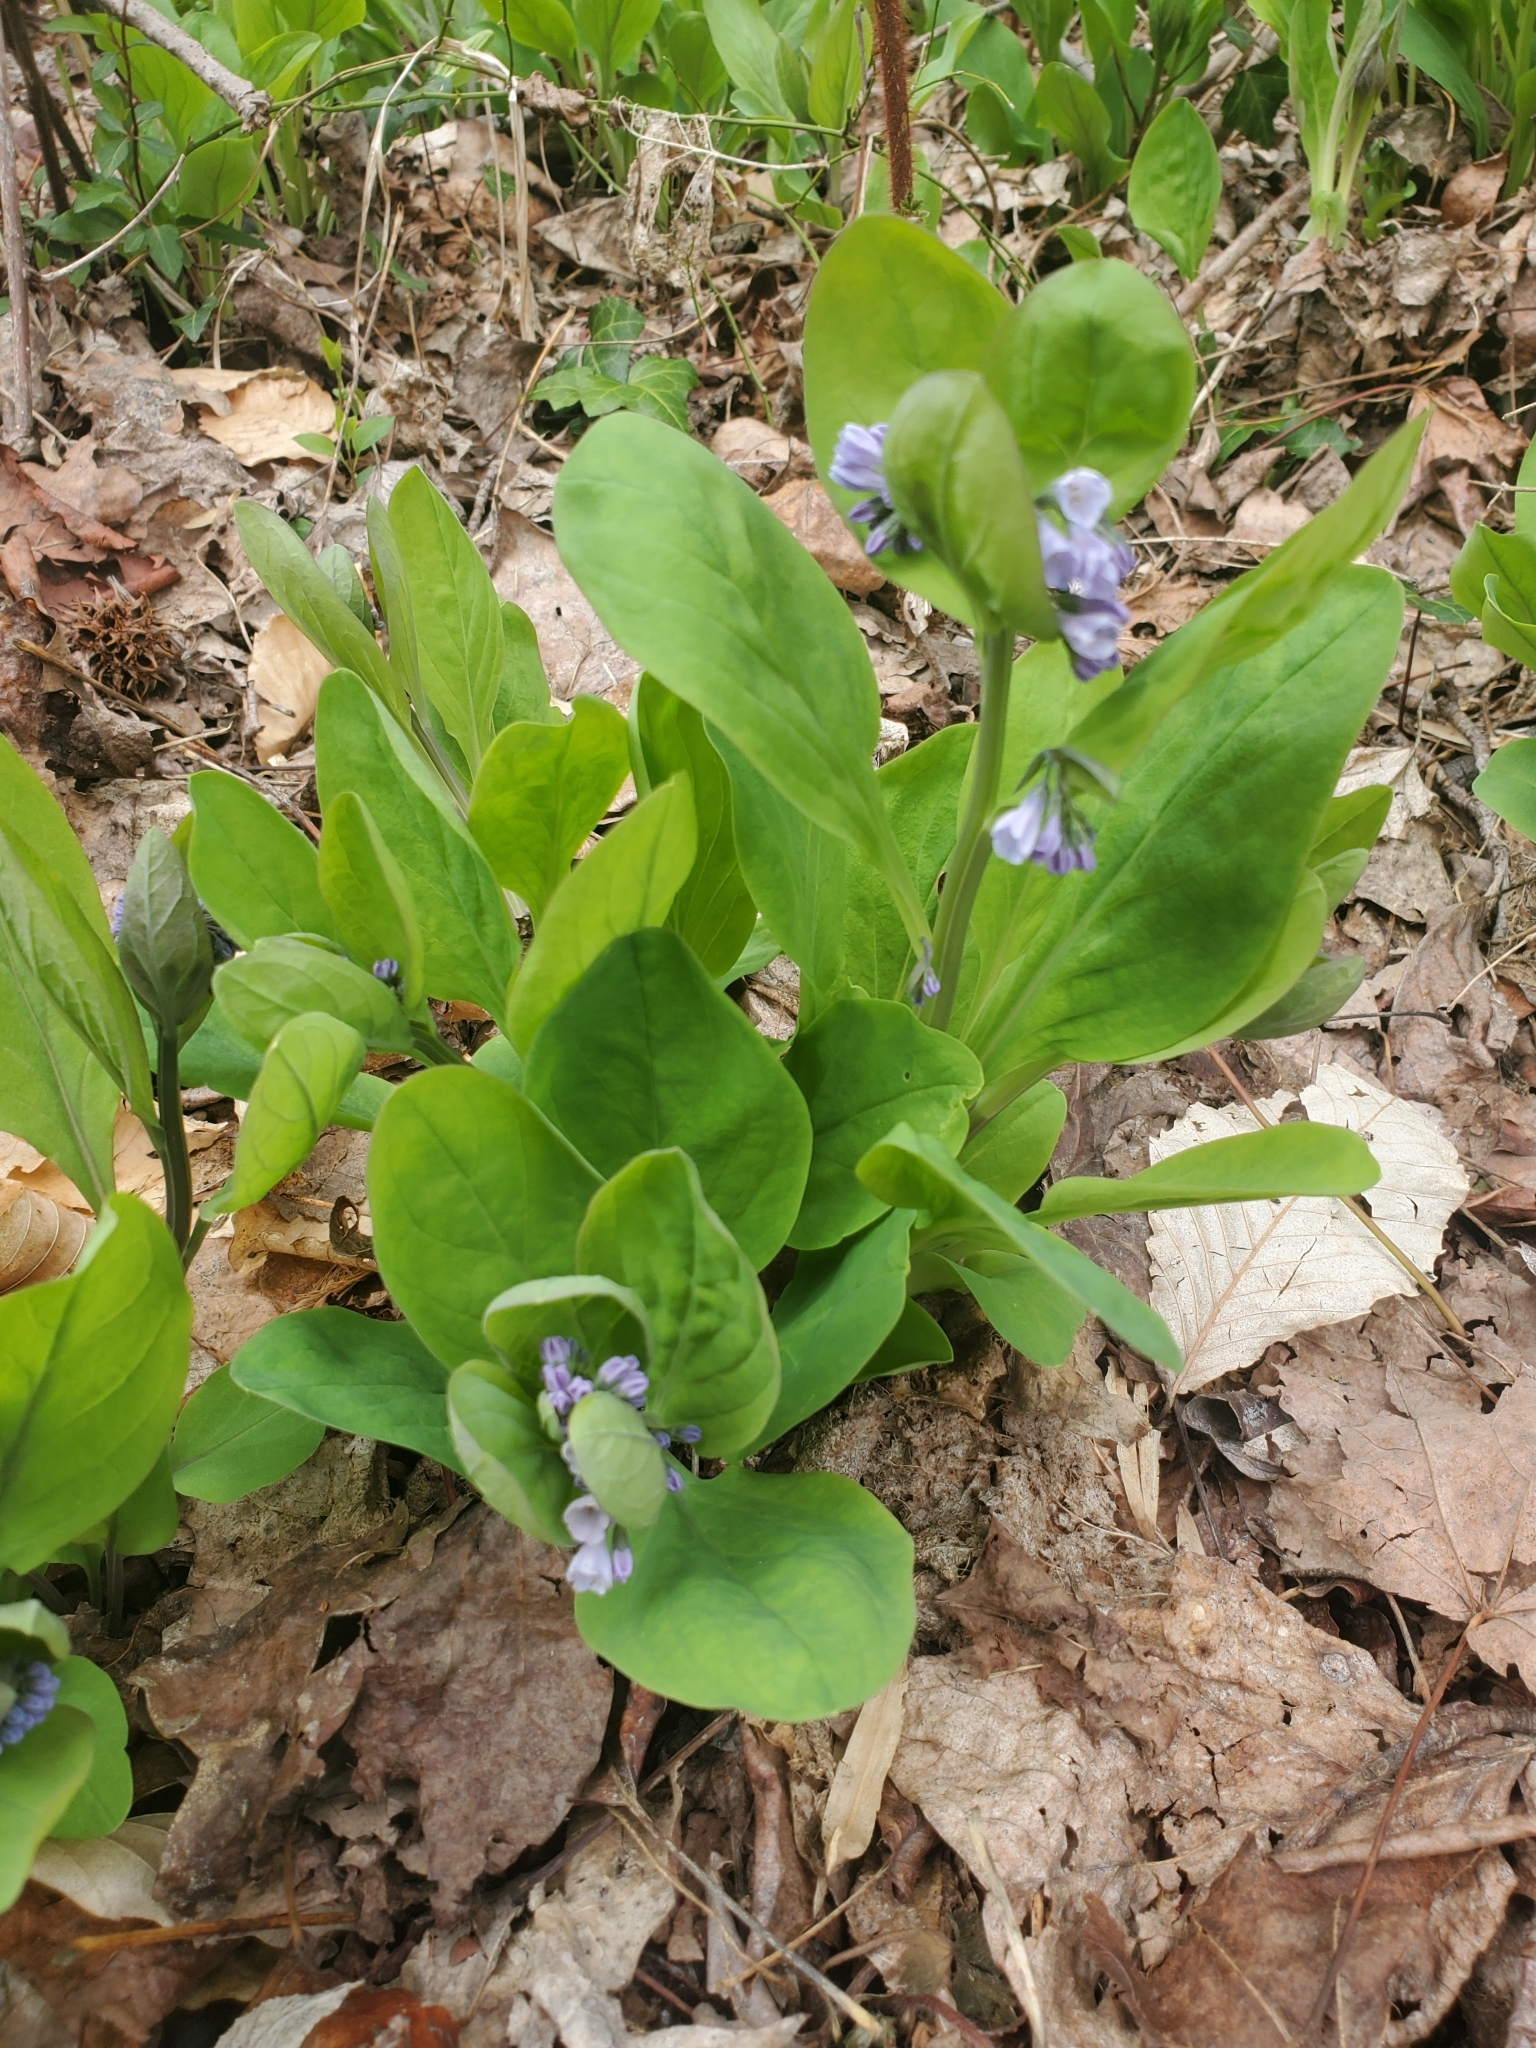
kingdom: Plantae
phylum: Tracheophyta
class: Magnoliopsida
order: Boraginales
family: Boraginaceae
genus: Mertensia
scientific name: Mertensia virginica
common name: Virginia bluebells
